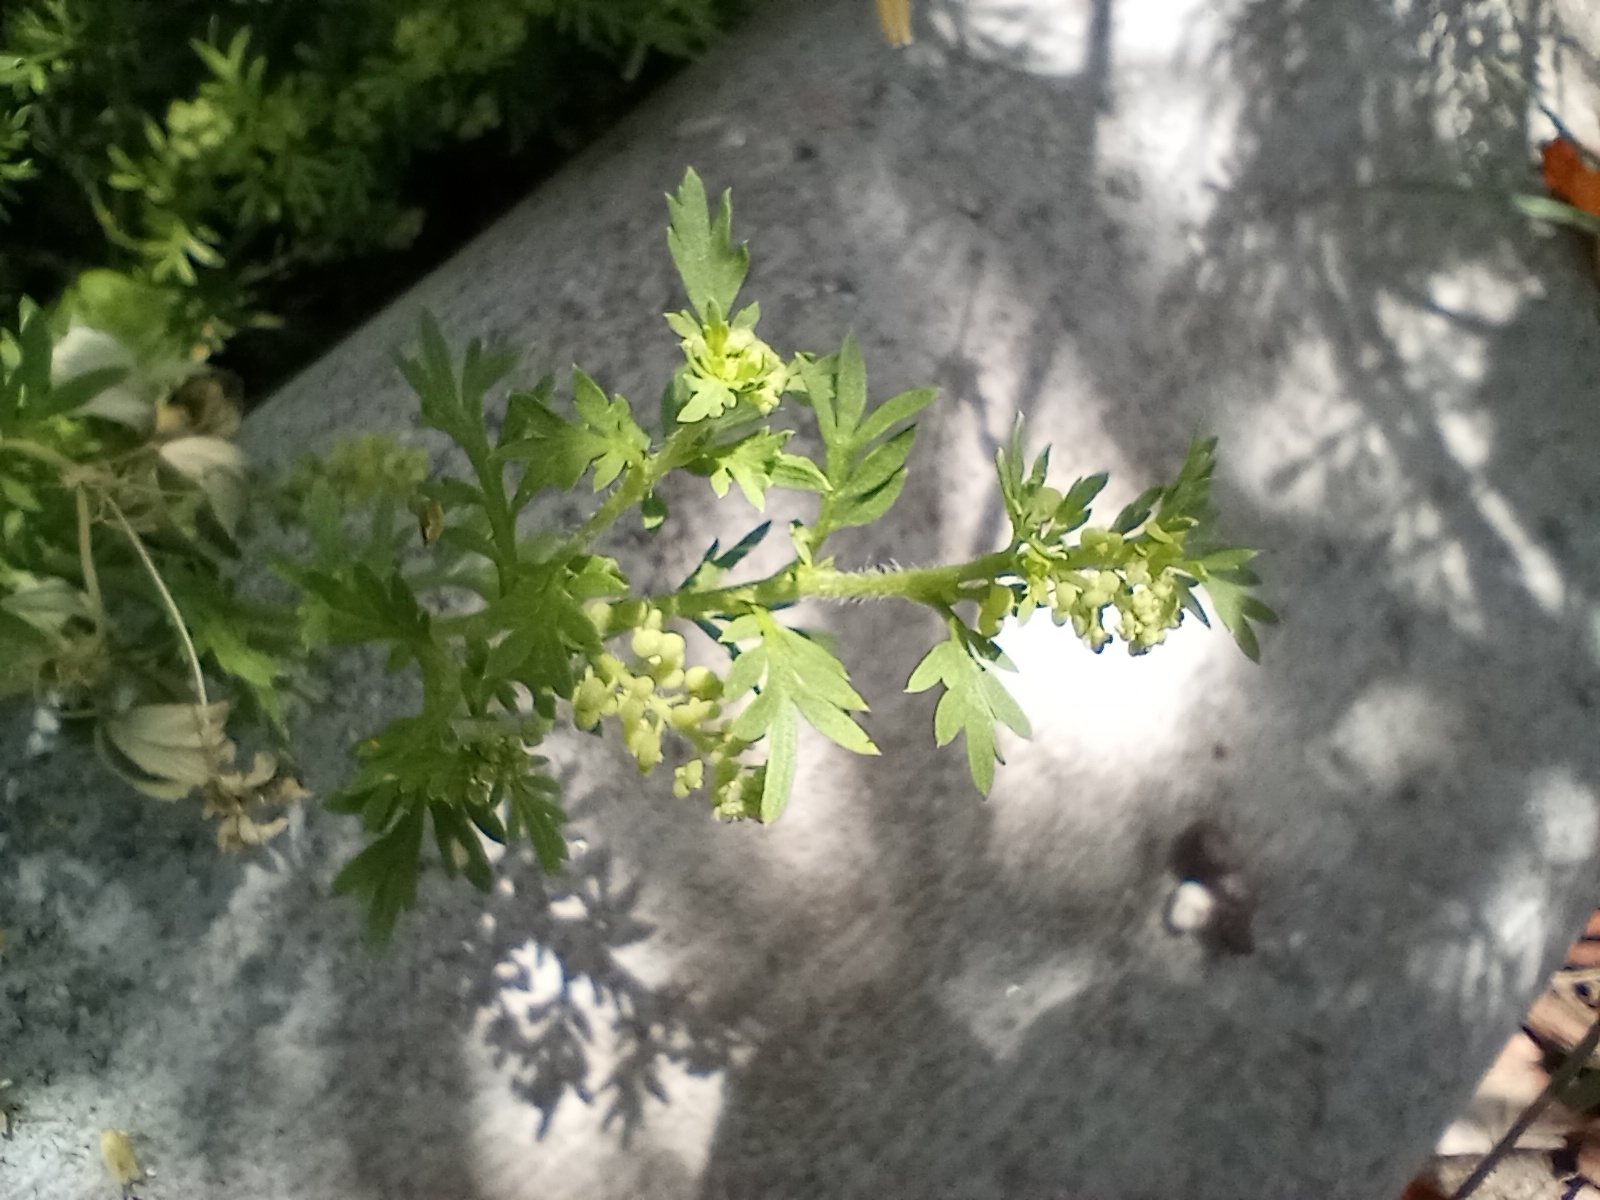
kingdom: Plantae
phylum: Tracheophyta
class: Magnoliopsida
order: Brassicales
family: Brassicaceae
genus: Lepidium
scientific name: Lepidium didymum
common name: Lesser swinecress
